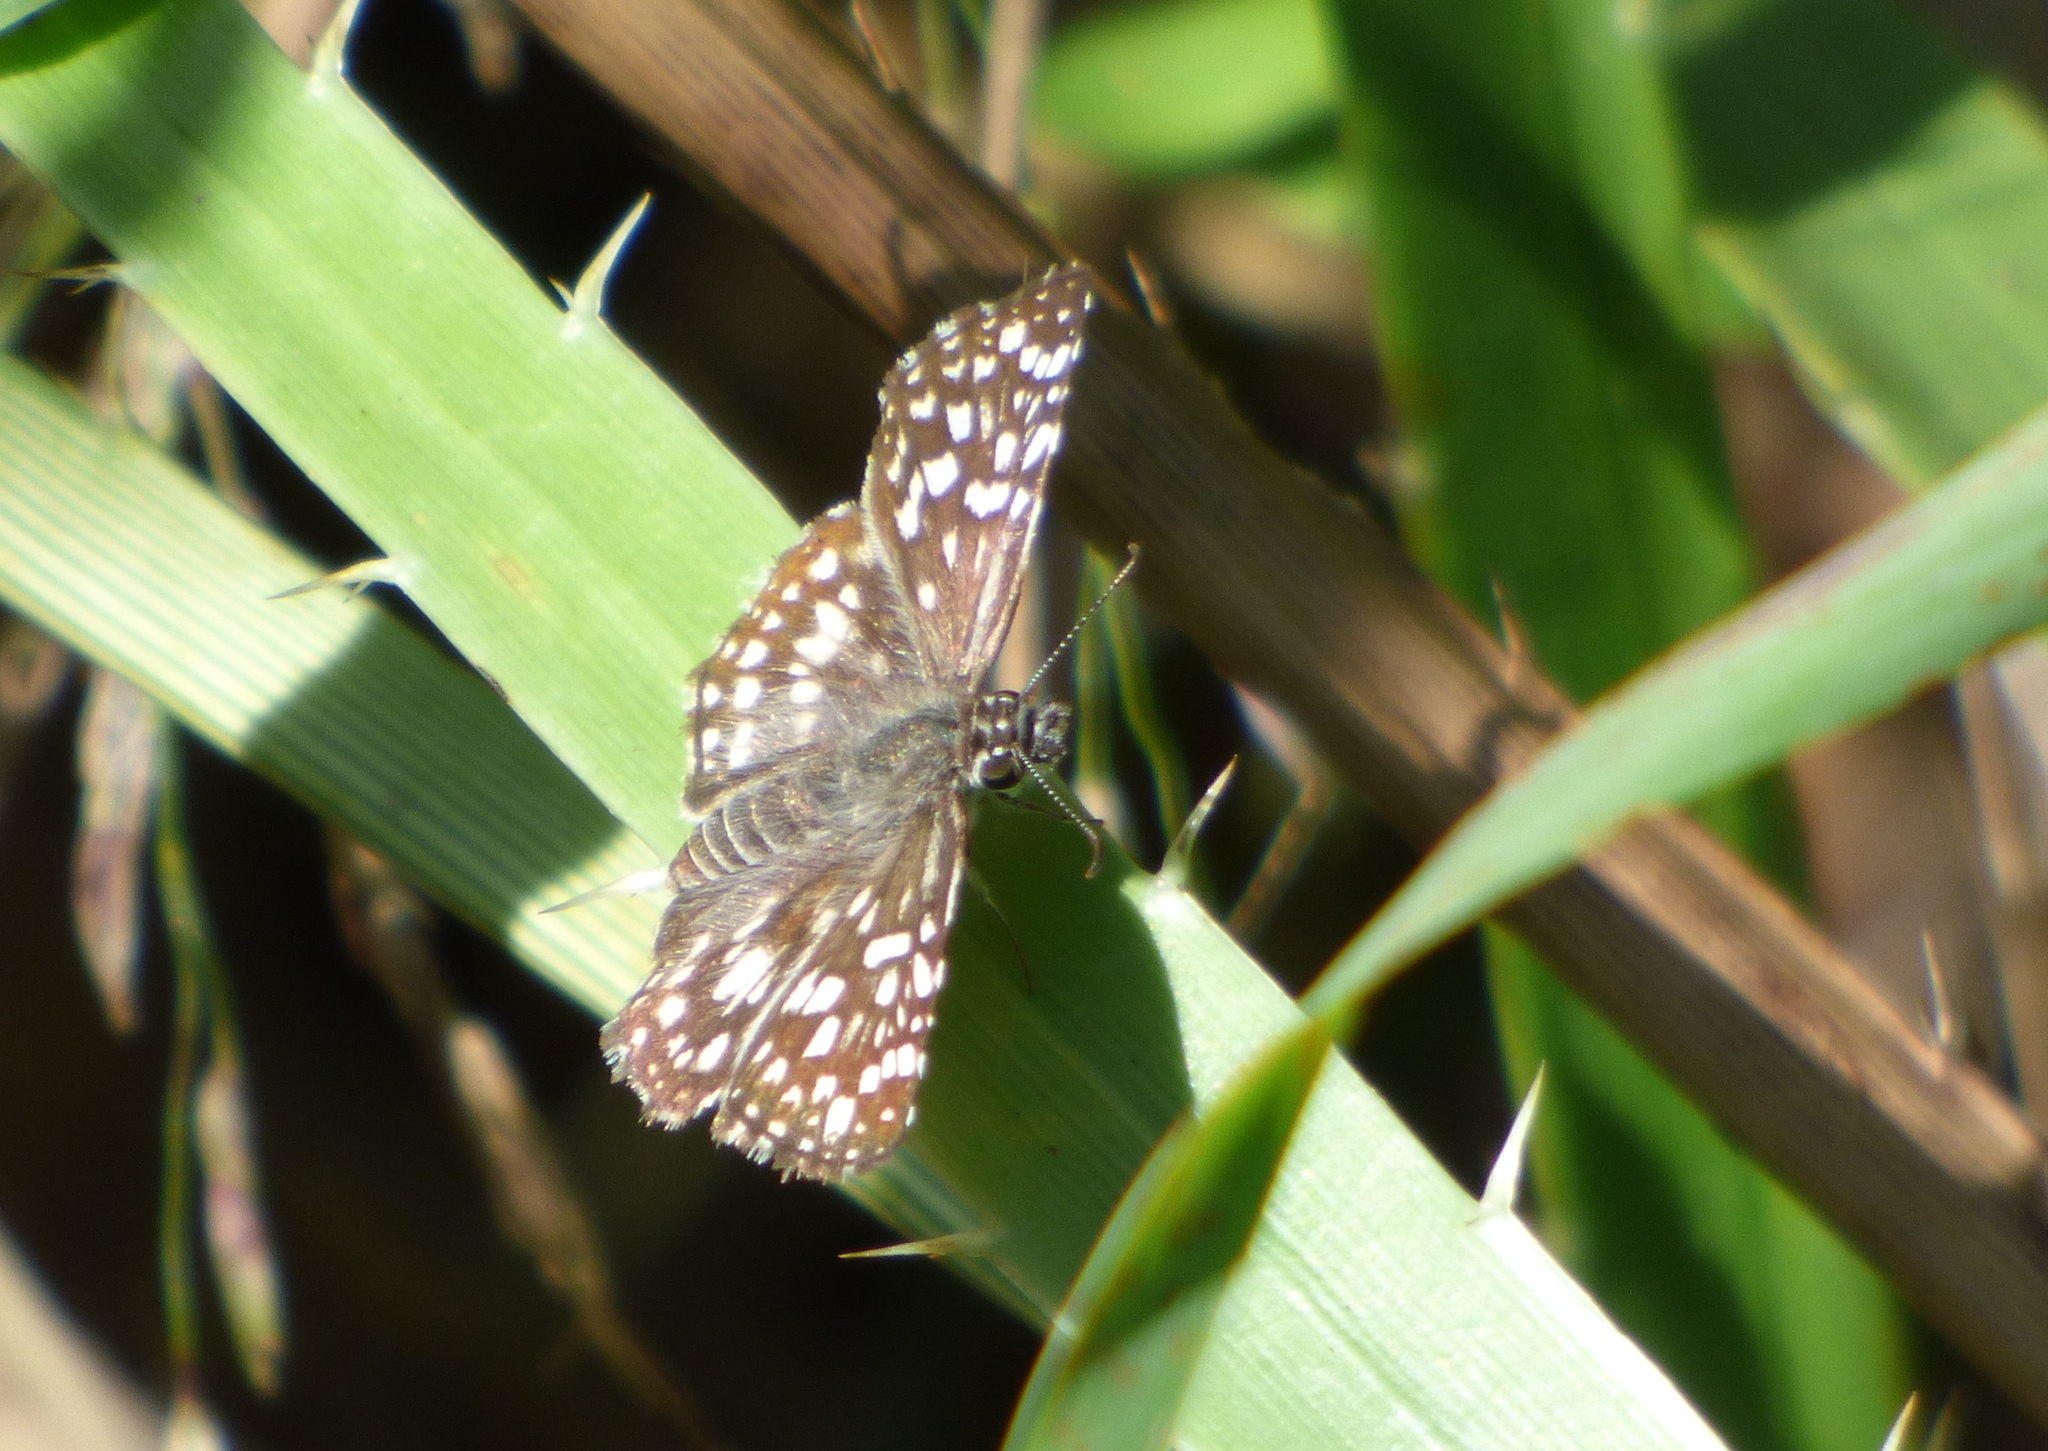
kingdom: Animalia
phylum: Arthropoda
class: Insecta
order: Lepidoptera
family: Hesperiidae
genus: Pyrgus
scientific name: Pyrgus oileus
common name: Tropical checkered-skipper
